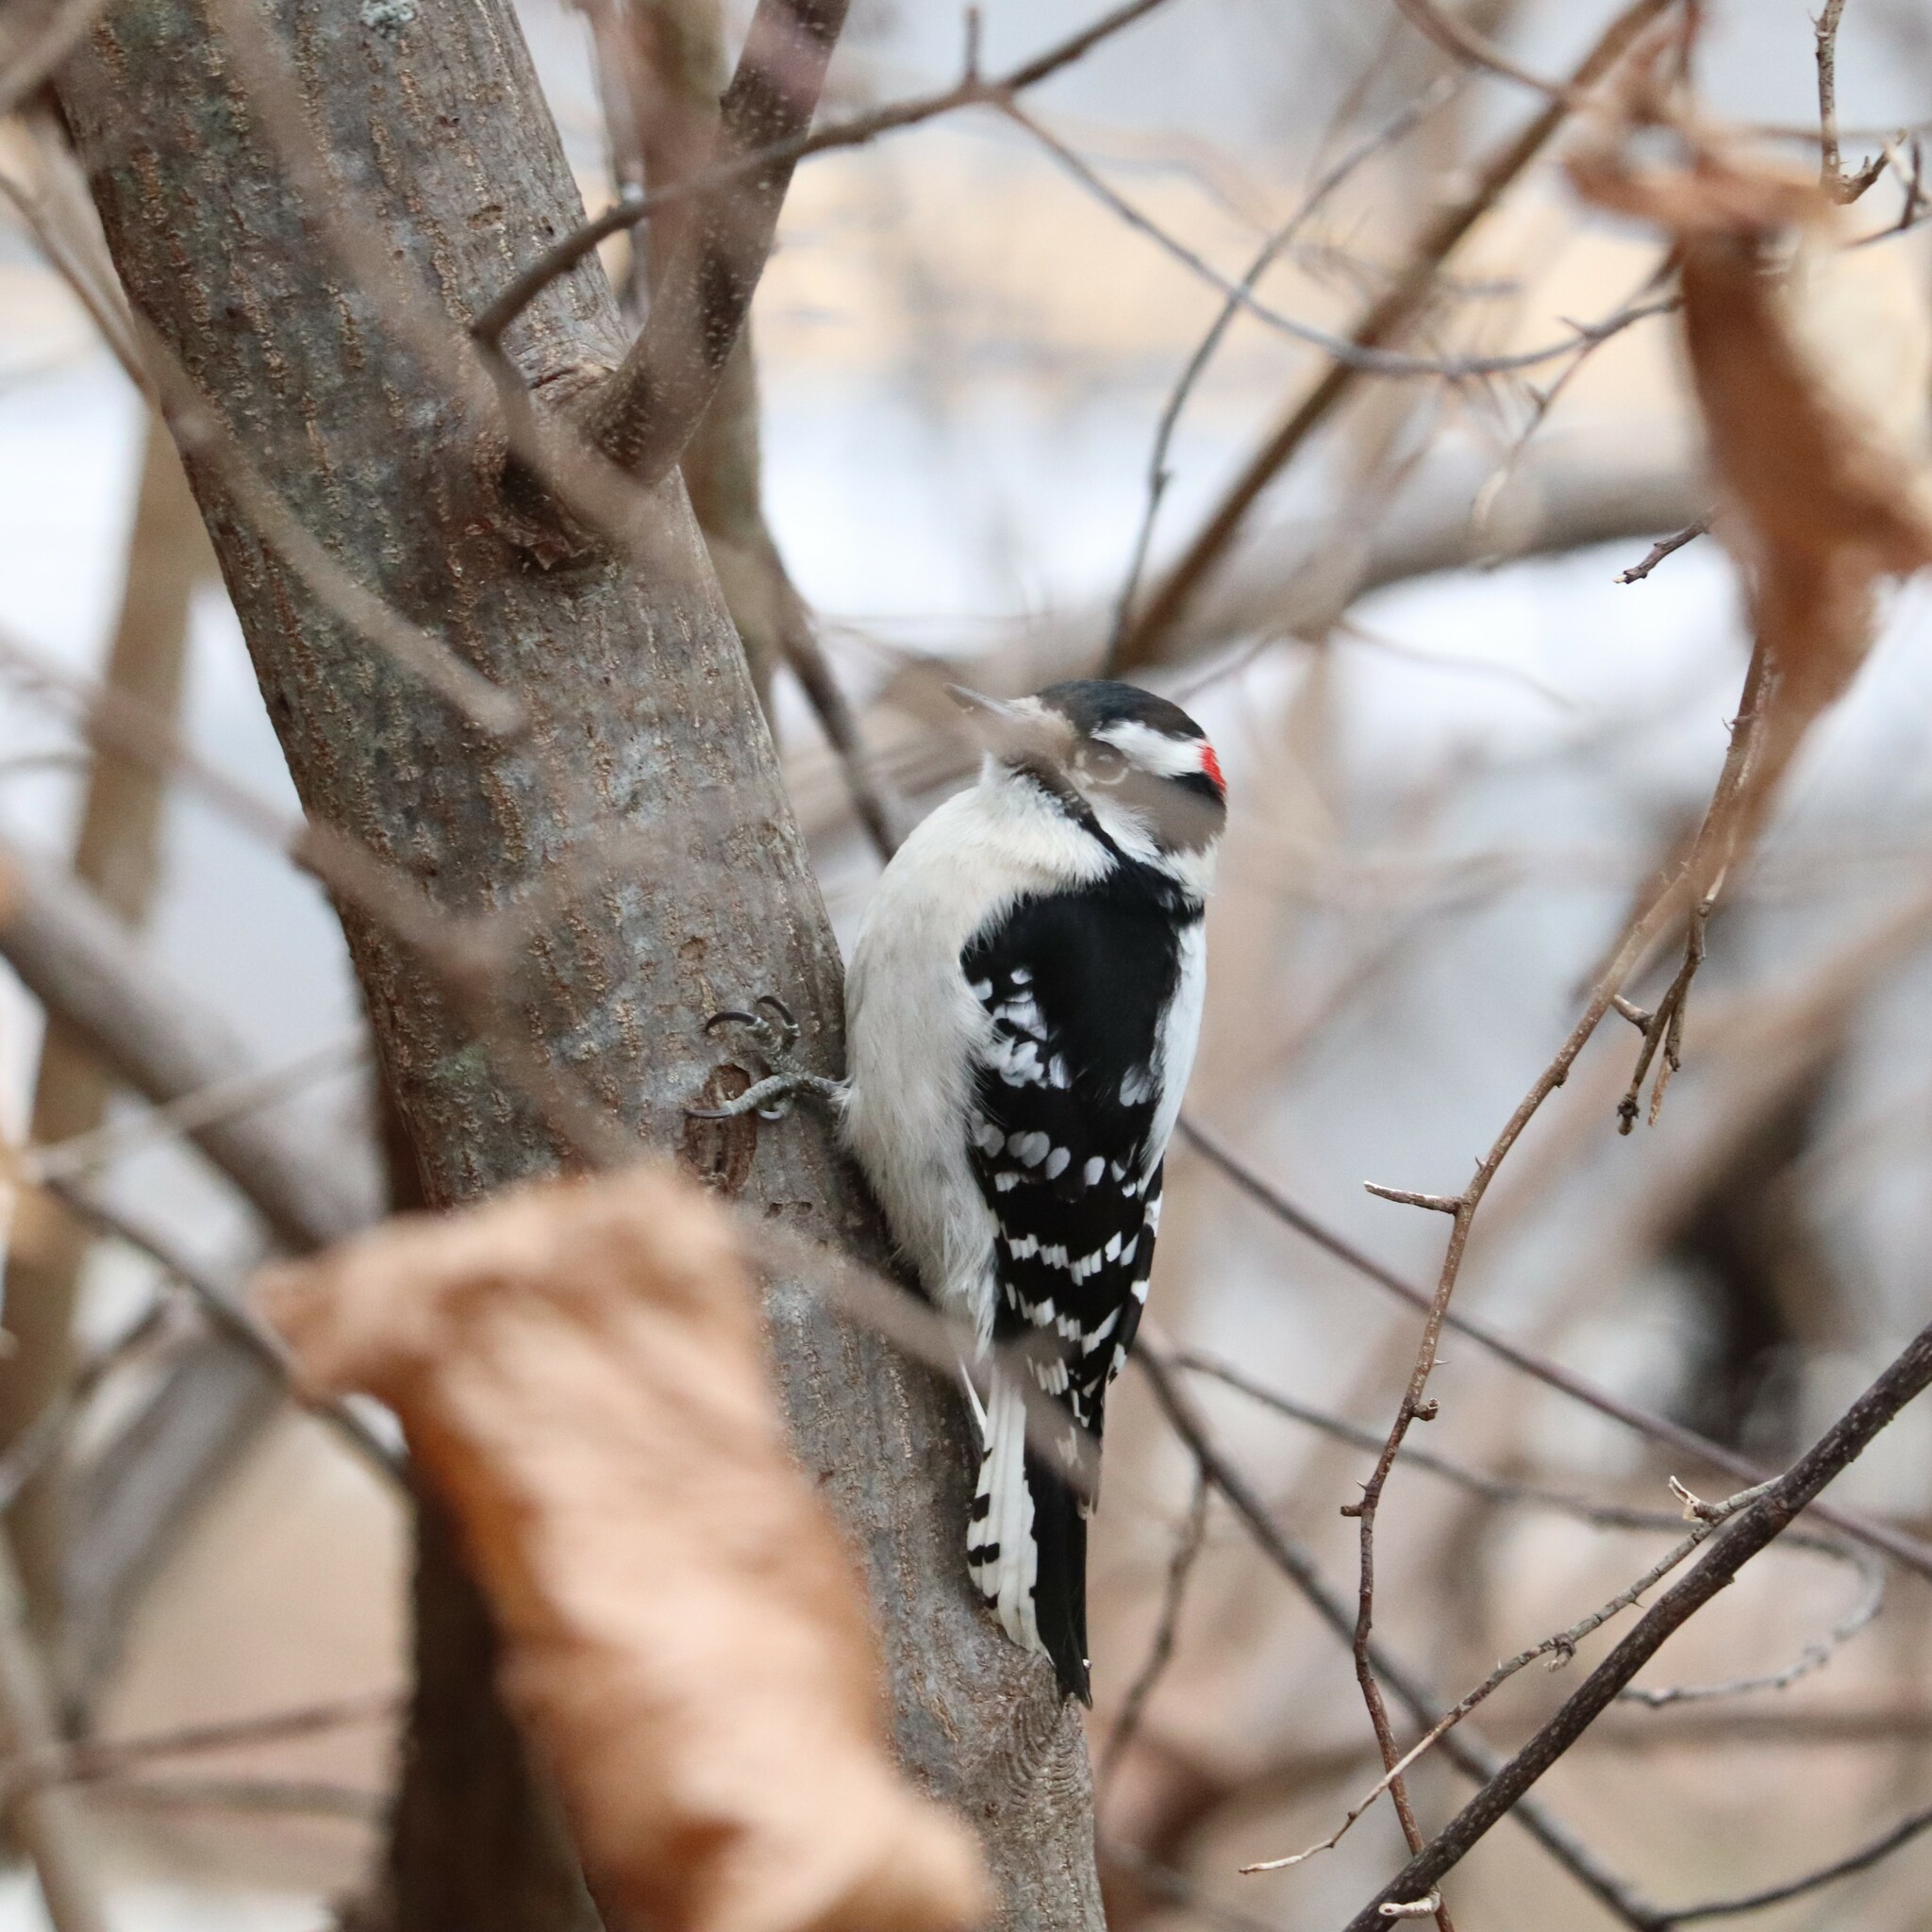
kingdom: Animalia
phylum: Chordata
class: Aves
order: Piciformes
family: Picidae
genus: Dryobates
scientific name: Dryobates pubescens
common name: Downy woodpecker
